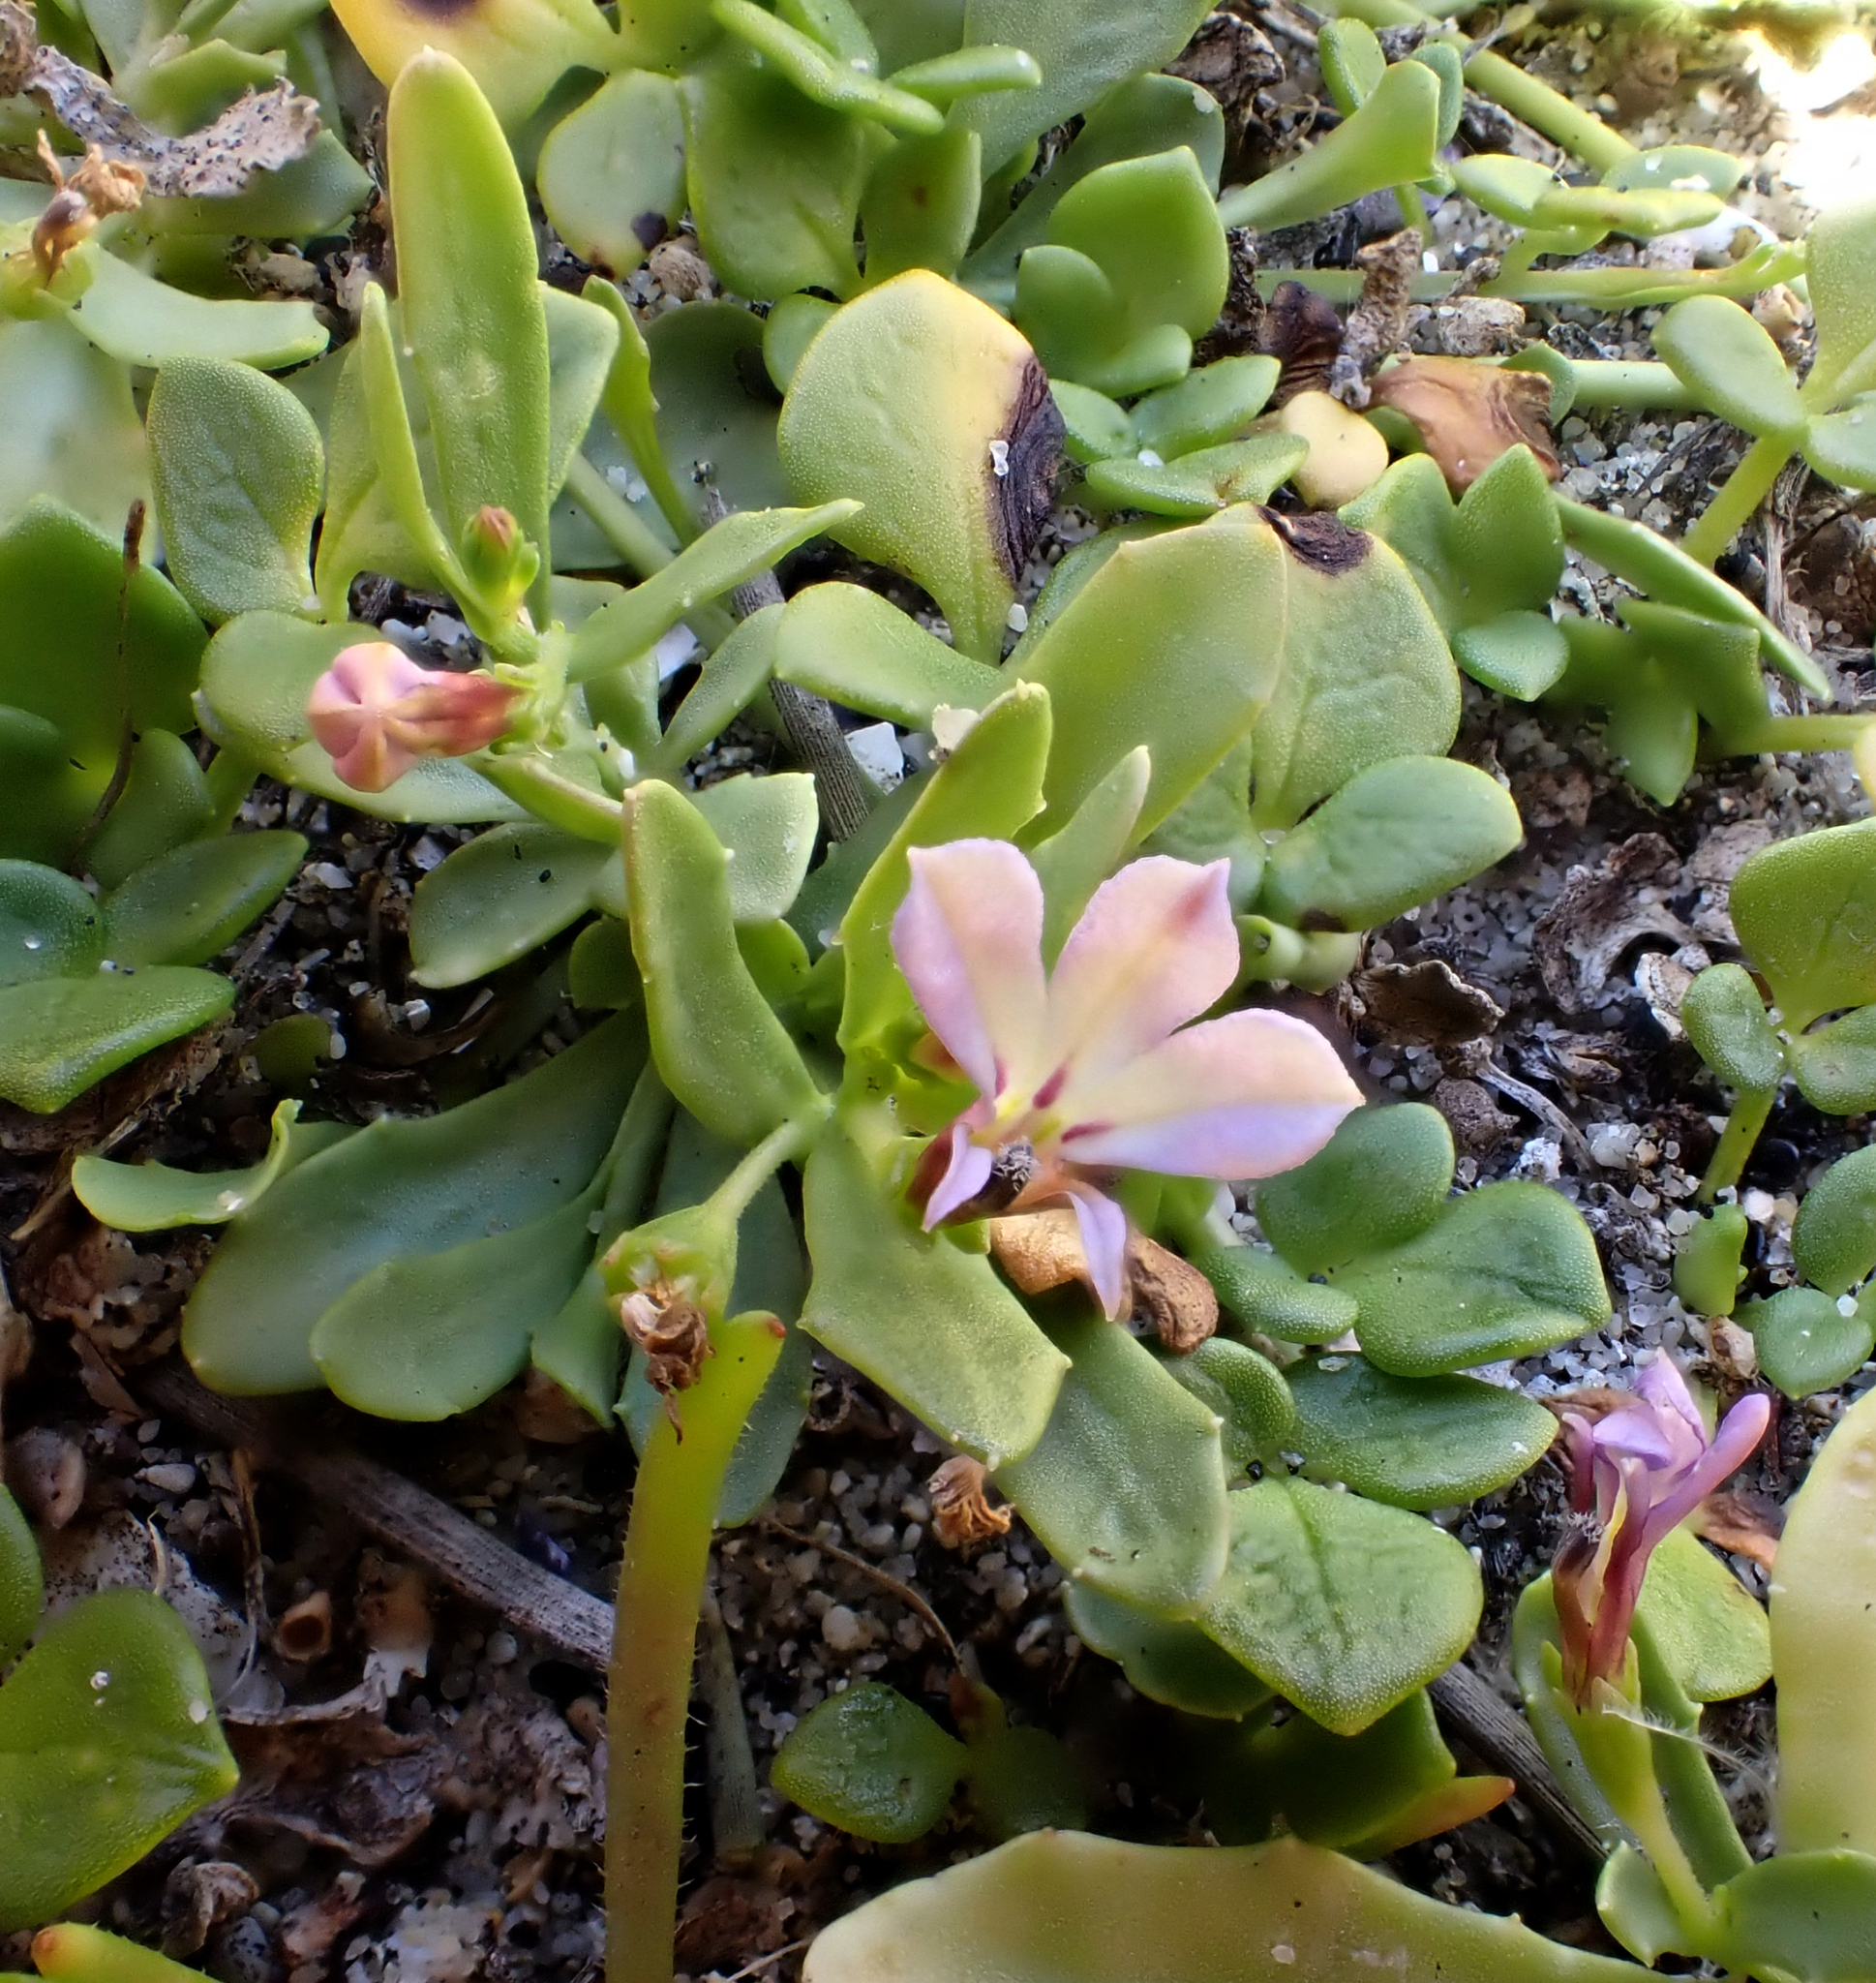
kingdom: Plantae
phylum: Tracheophyta
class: Magnoliopsida
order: Asterales
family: Campanulaceae
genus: Lobelia
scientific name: Lobelia anceps
